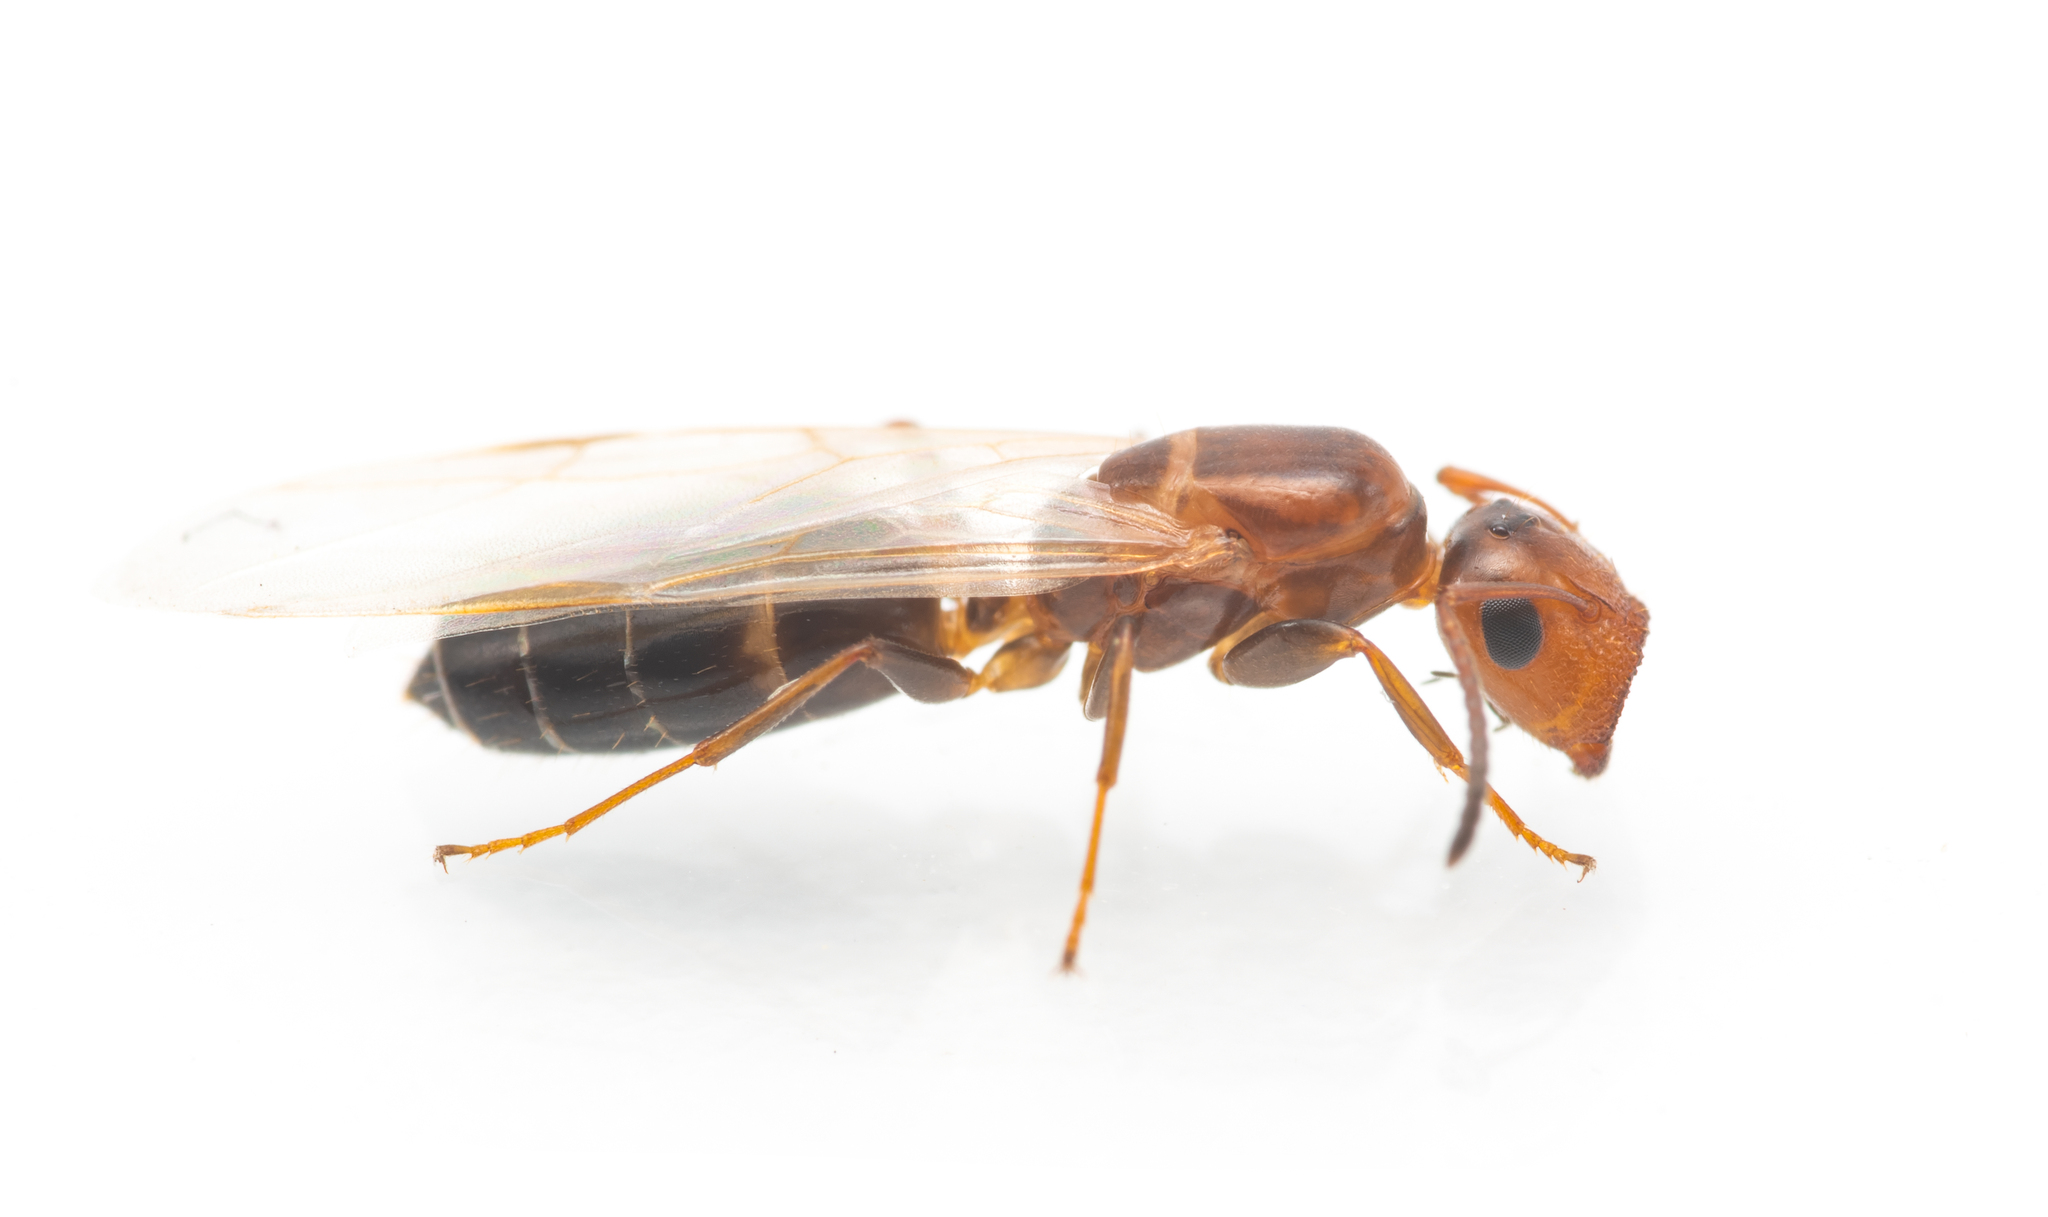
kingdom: Animalia
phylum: Arthropoda
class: Insecta
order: Hymenoptera
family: Formicidae
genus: Camponotus
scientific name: Camponotus truncatus
